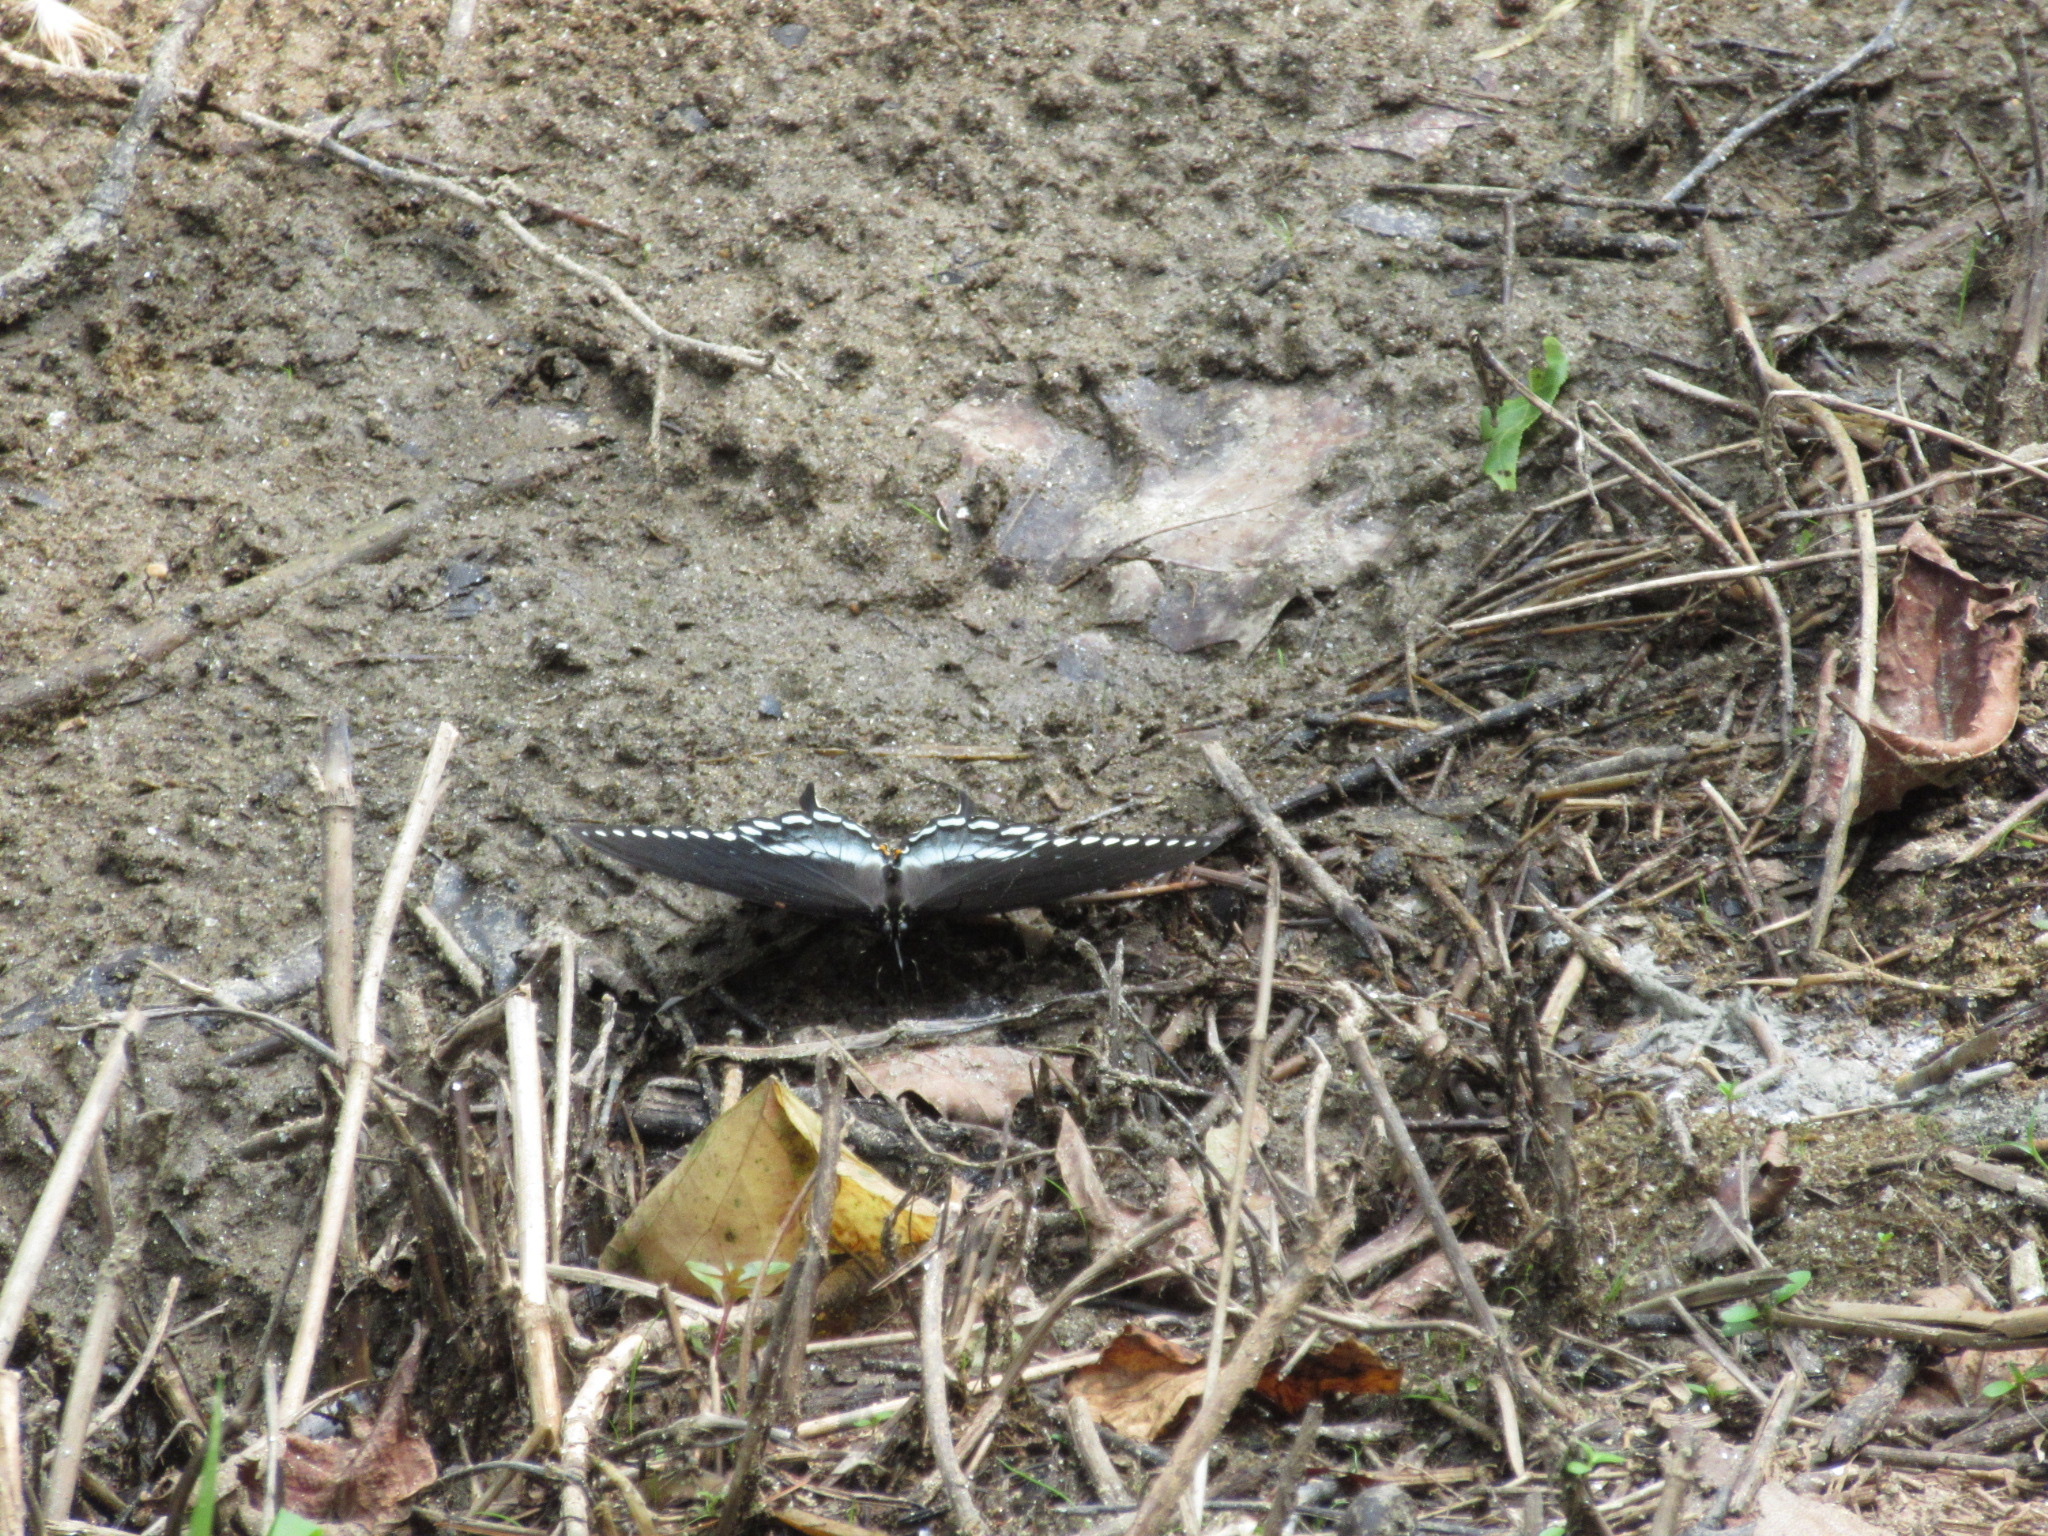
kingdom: Animalia
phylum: Arthropoda
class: Insecta
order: Lepidoptera
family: Papilionidae
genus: Papilio
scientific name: Papilio troilus
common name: Spicebush swallowtail
